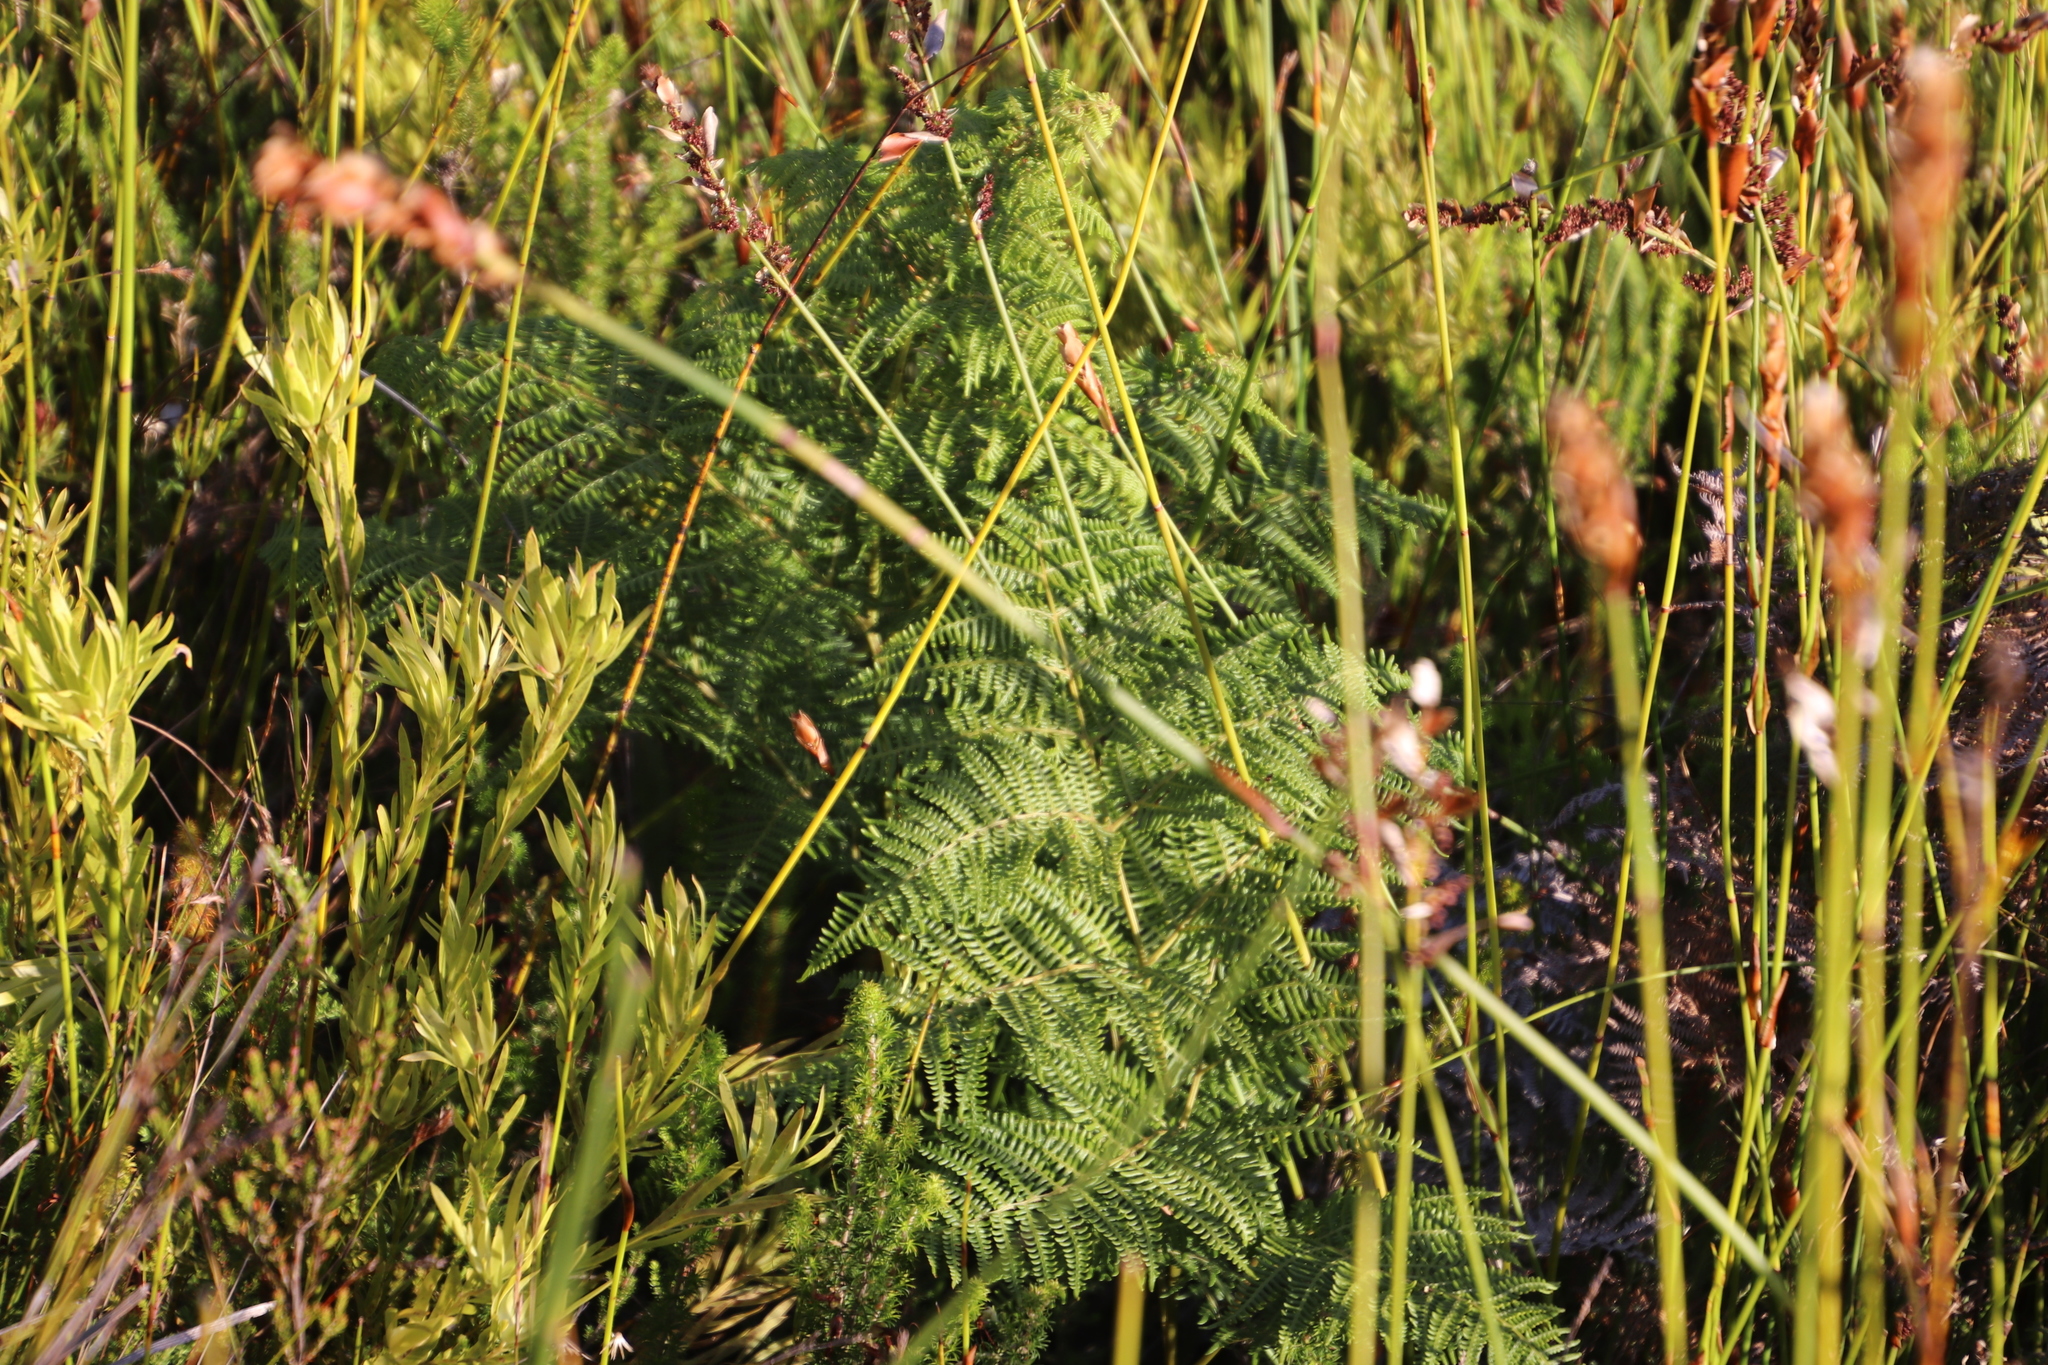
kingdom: Plantae
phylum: Tracheophyta
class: Polypodiopsida
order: Polypodiales
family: Dennstaedtiaceae
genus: Pteridium
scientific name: Pteridium aquilinum
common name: Bracken
